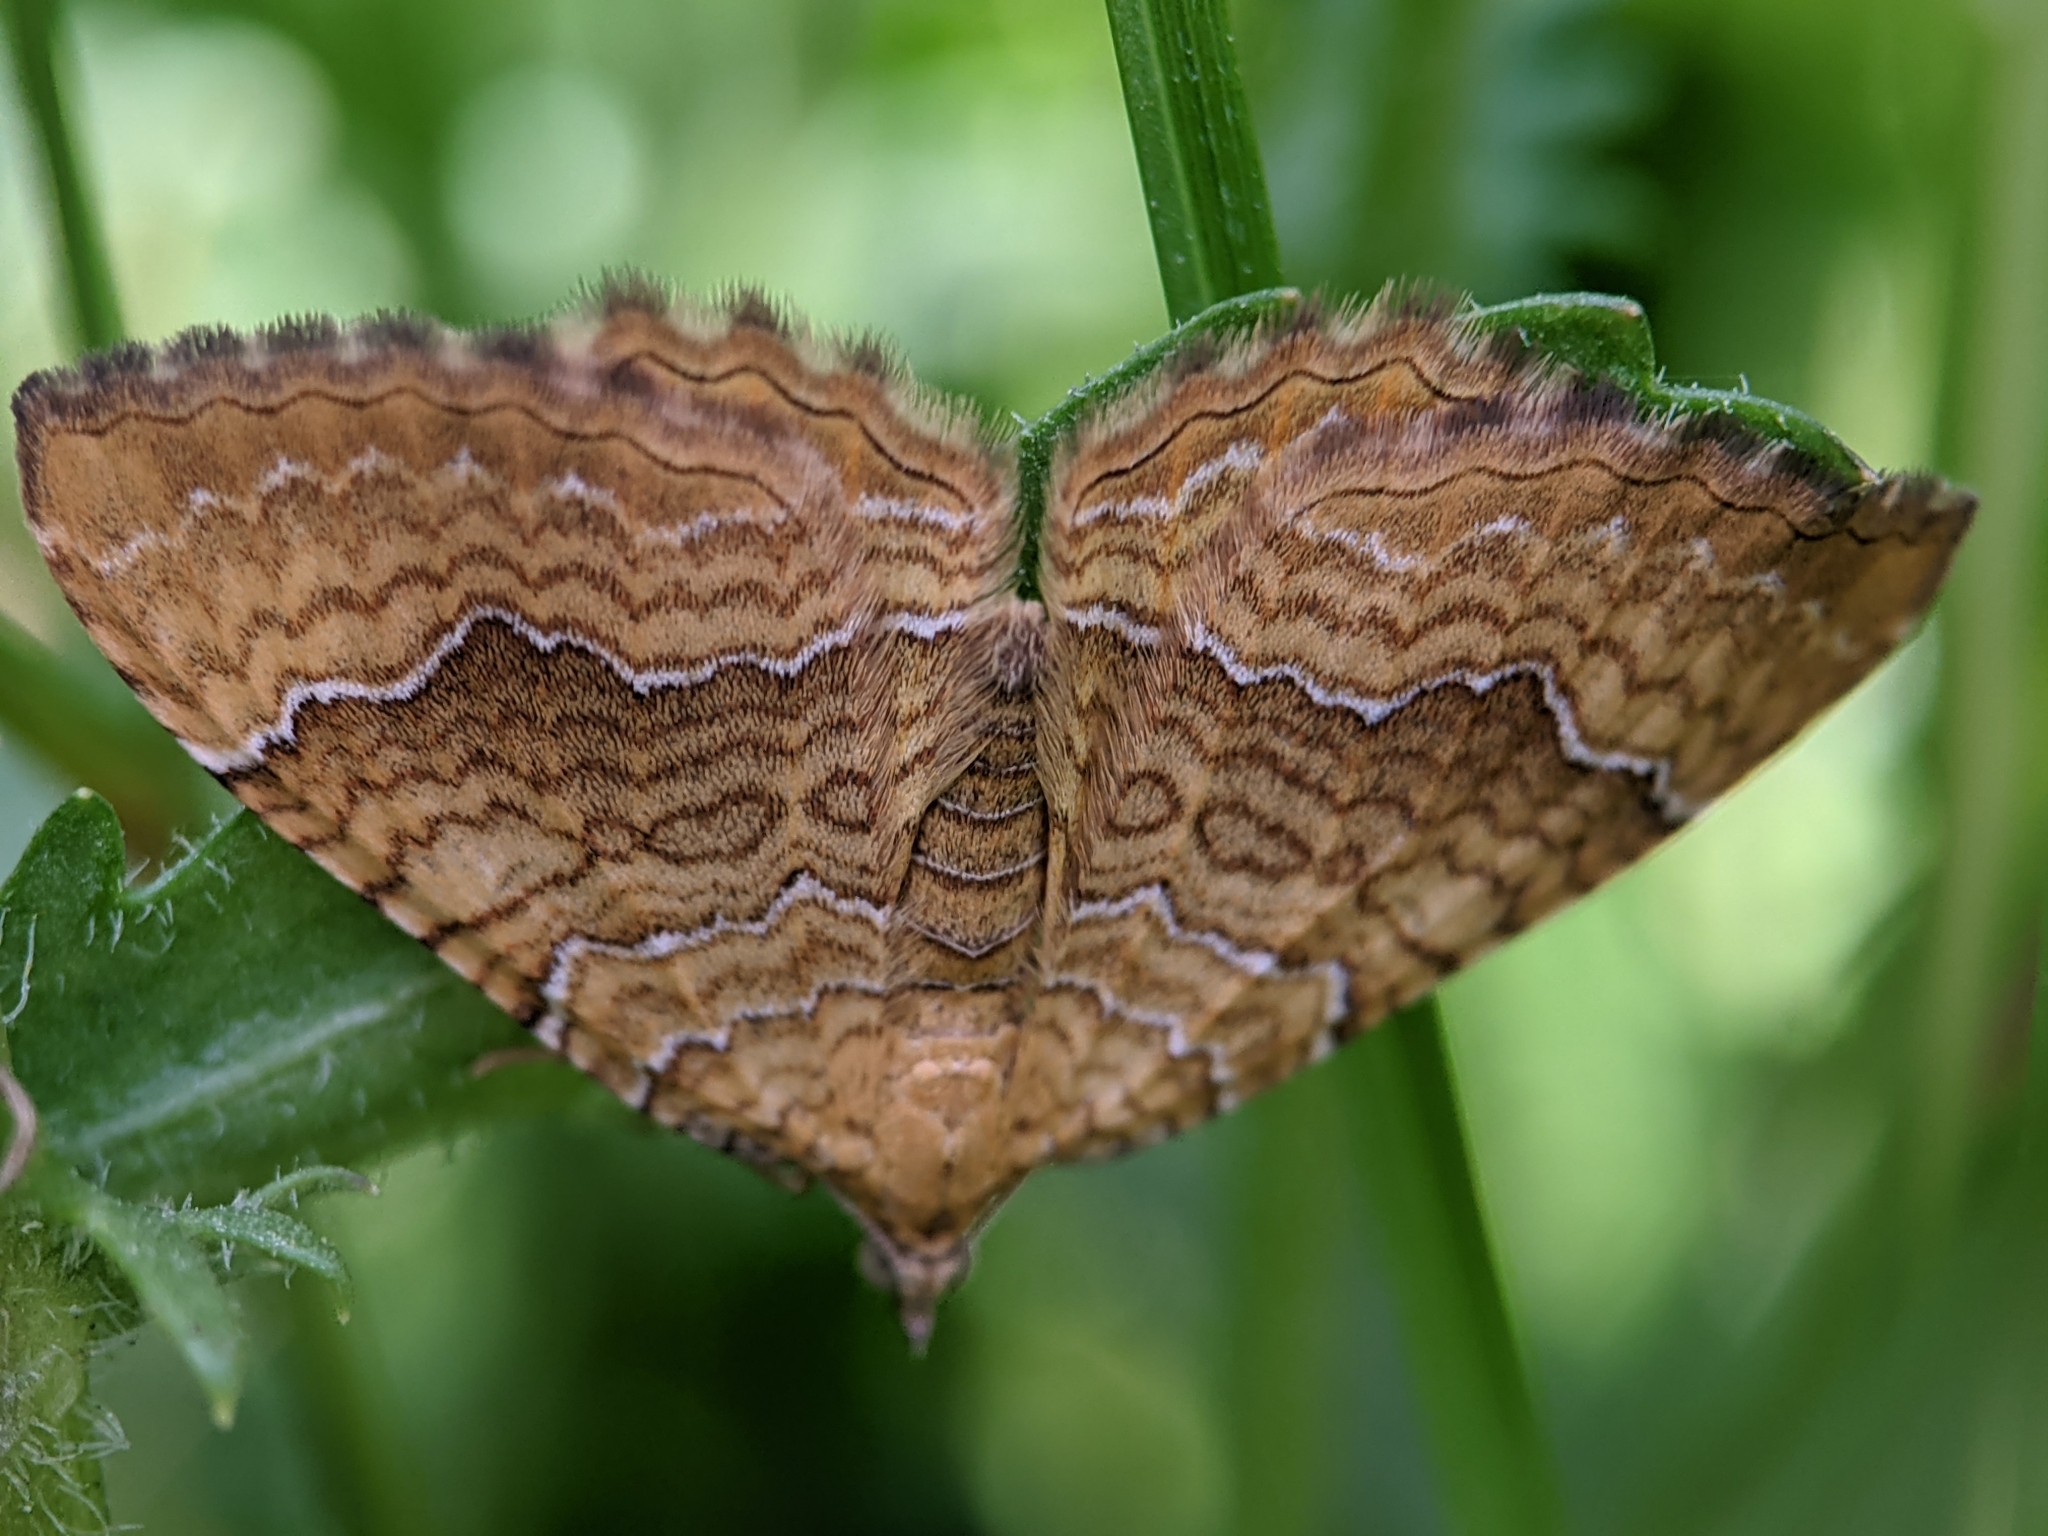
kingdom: Animalia
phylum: Arthropoda
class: Insecta
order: Lepidoptera
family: Geometridae
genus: Camptogramma
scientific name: Camptogramma bilineata
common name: Yellow shell
